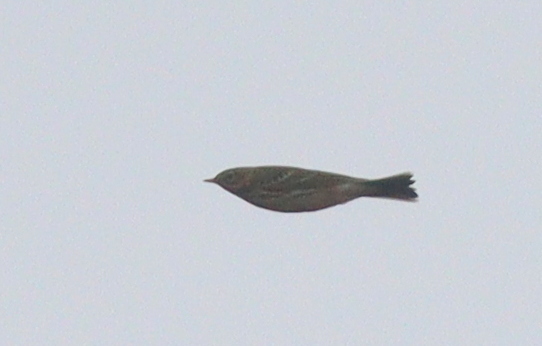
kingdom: Animalia
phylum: Chordata
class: Aves
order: Passeriformes
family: Motacillidae
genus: Anthus
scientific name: Anthus pratensis
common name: Meadow pipit
